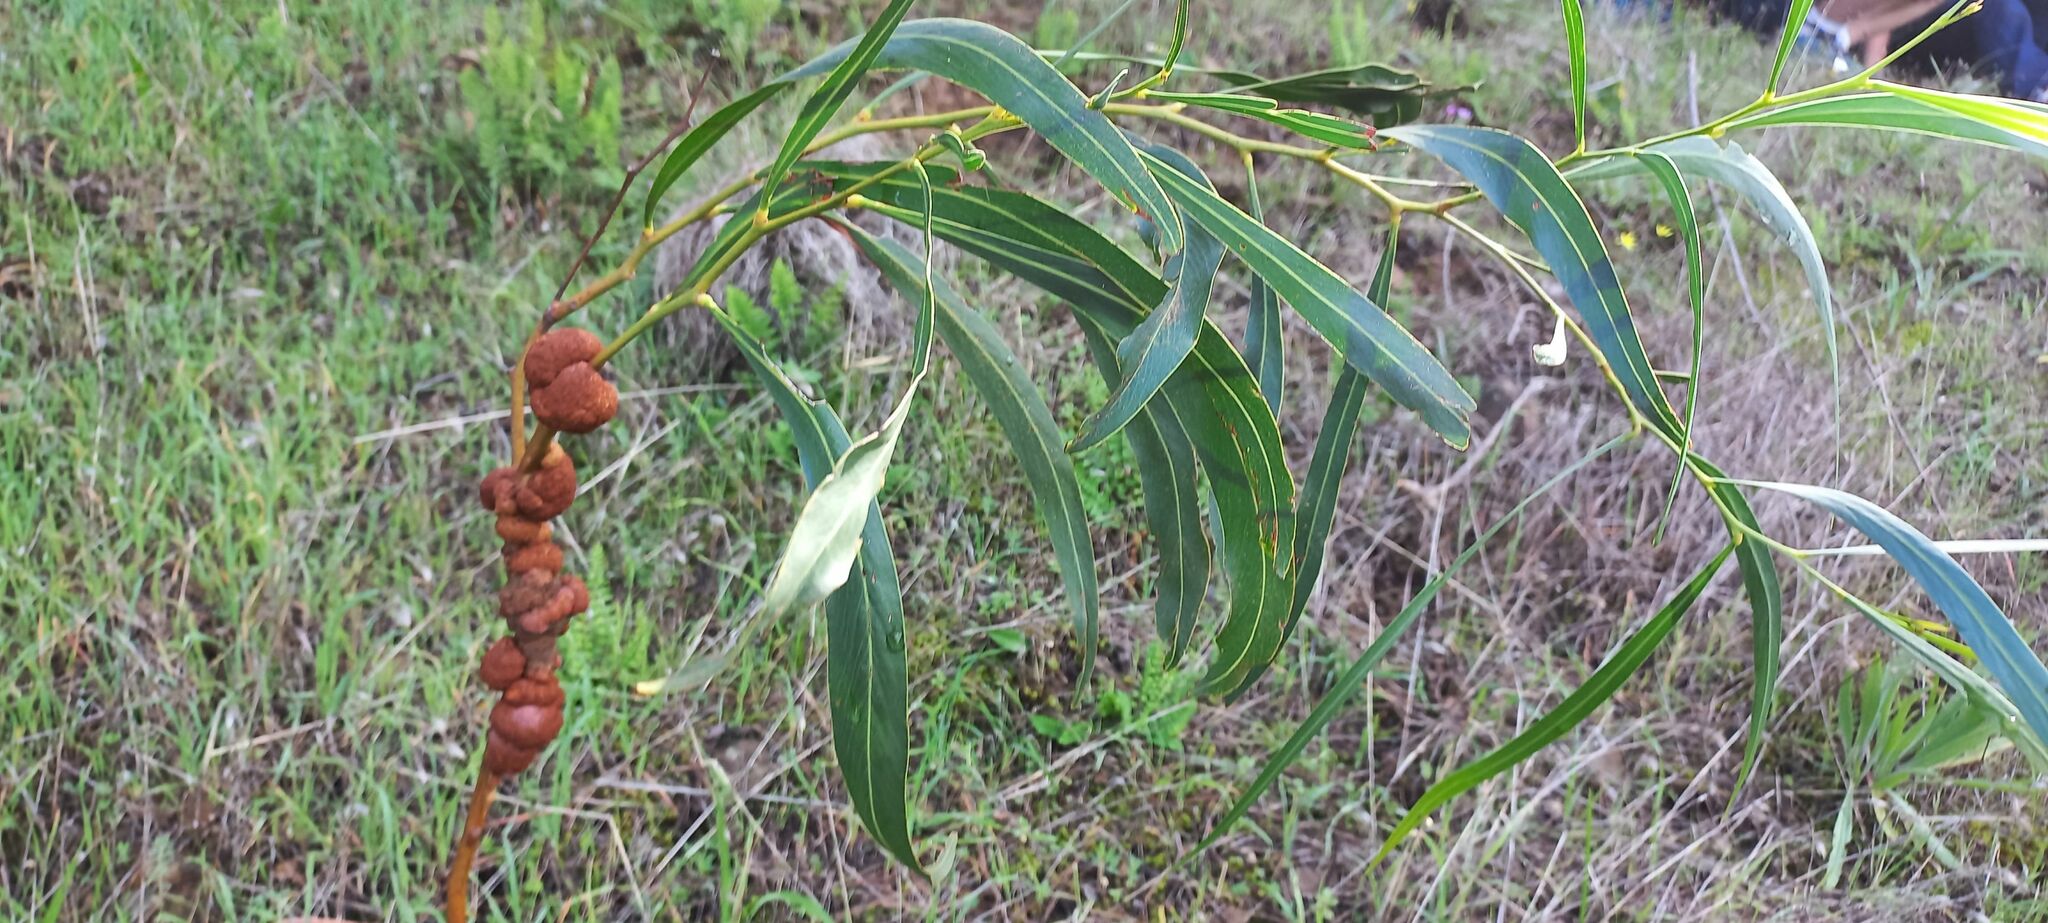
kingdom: Plantae
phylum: Tracheophyta
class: Magnoliopsida
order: Fabales
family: Fabaceae
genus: Acacia
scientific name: Acacia saligna
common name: Orange wattle
